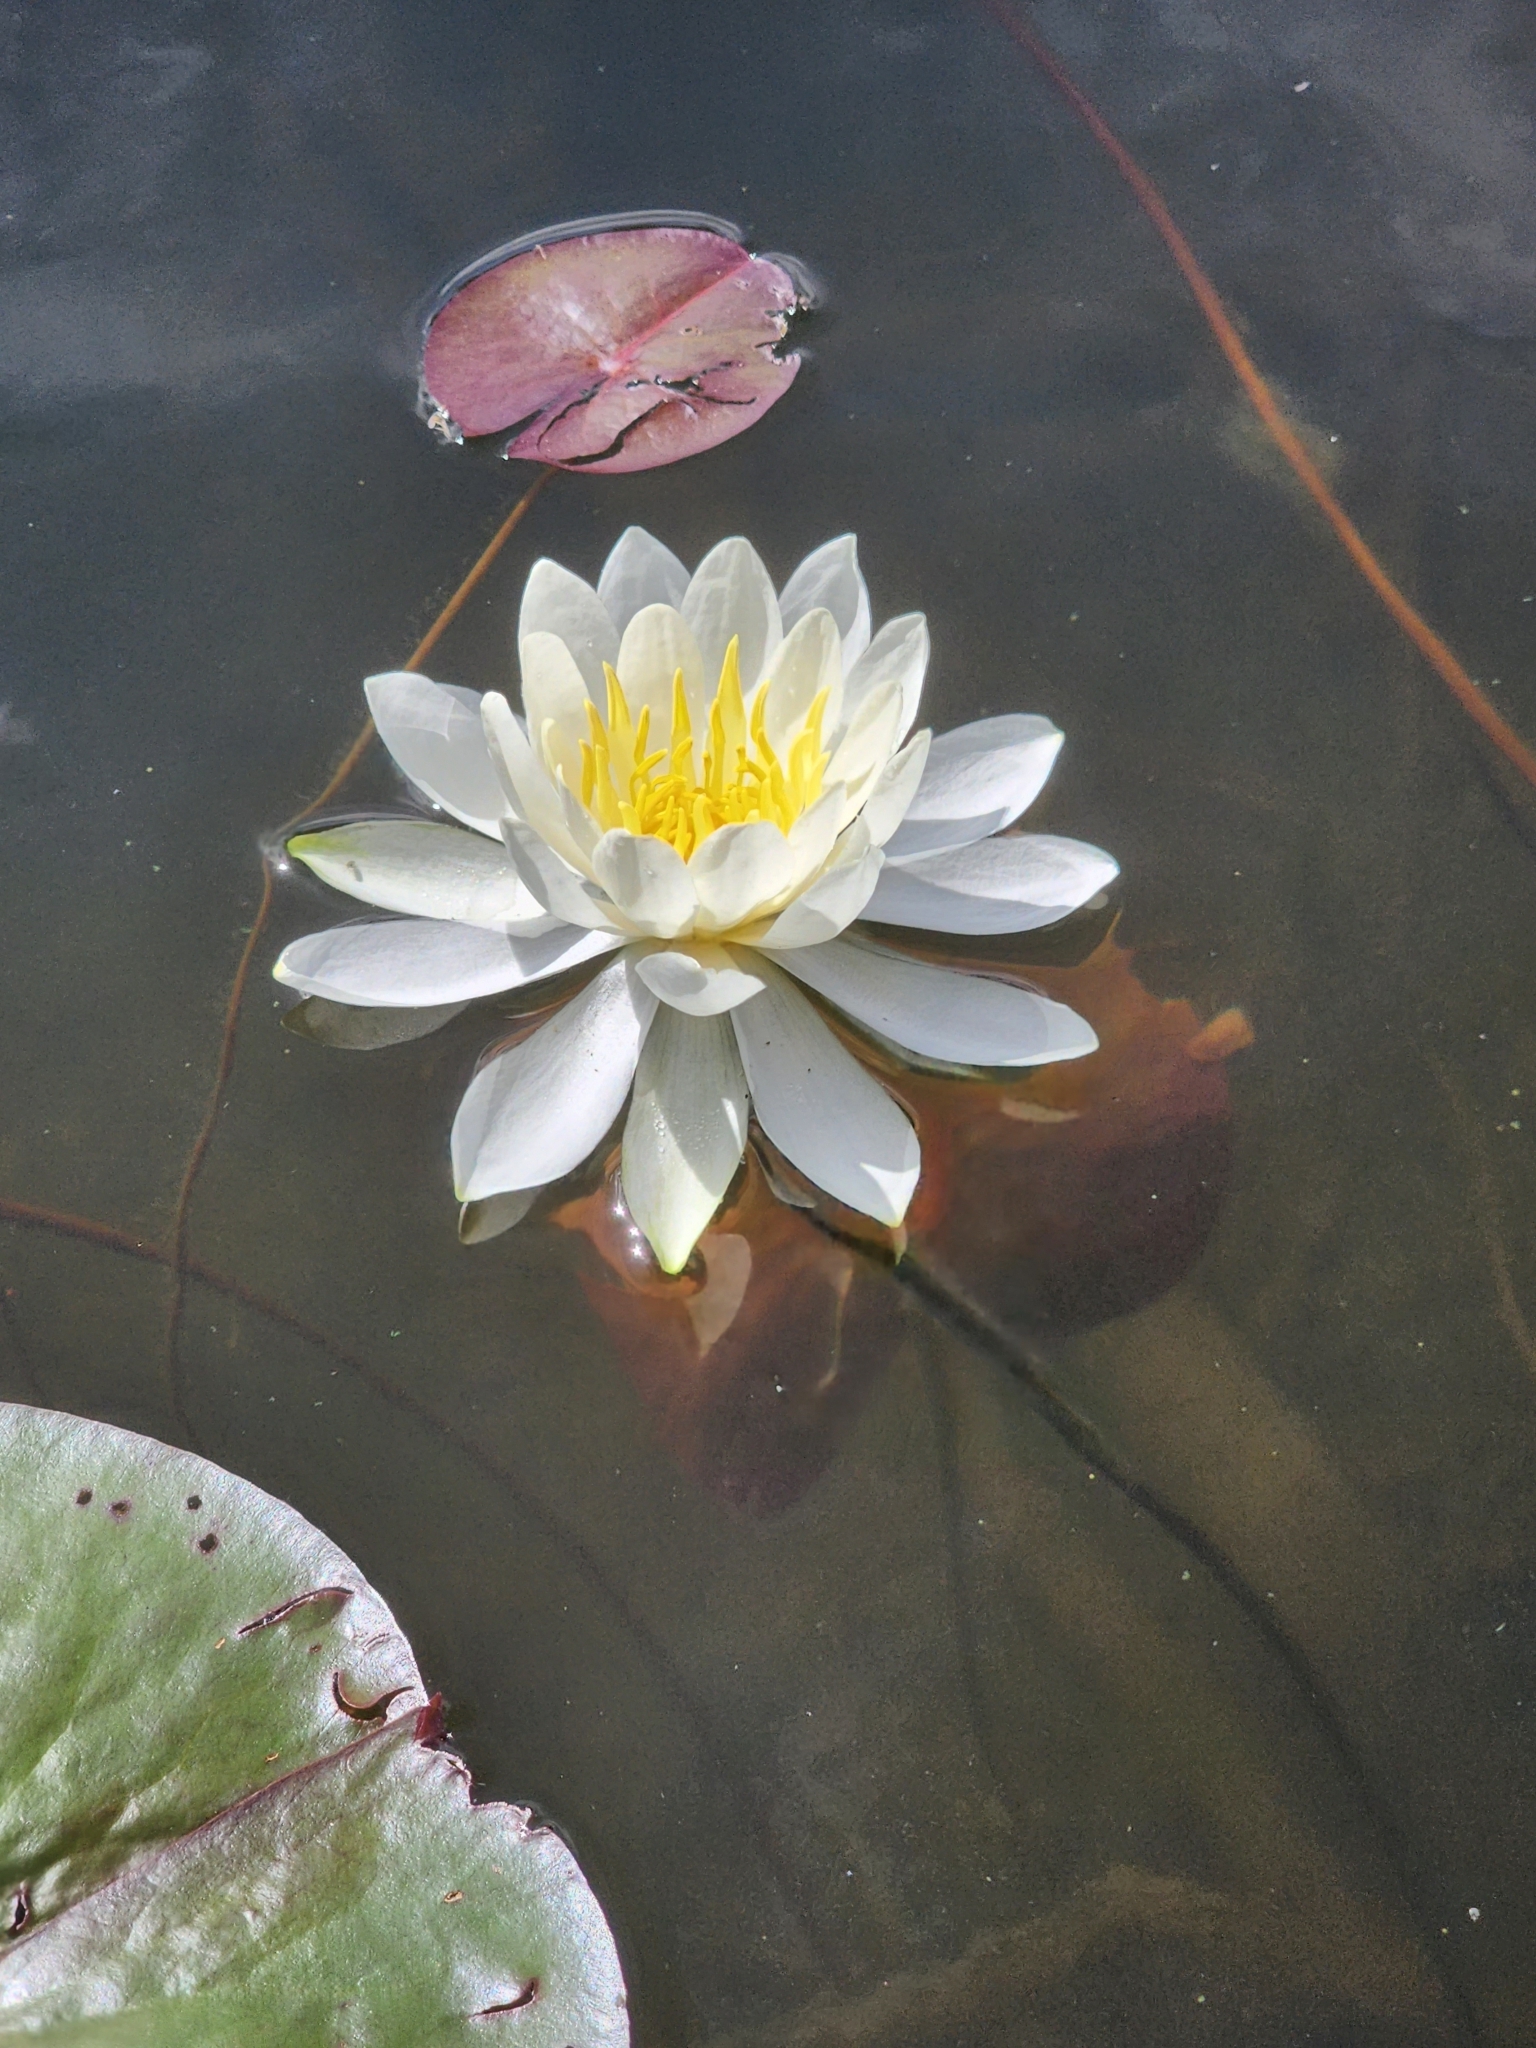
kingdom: Plantae
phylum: Tracheophyta
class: Magnoliopsida
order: Nymphaeales
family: Nymphaeaceae
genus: Nymphaea
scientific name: Nymphaea odorata
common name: Fragrant water-lily
